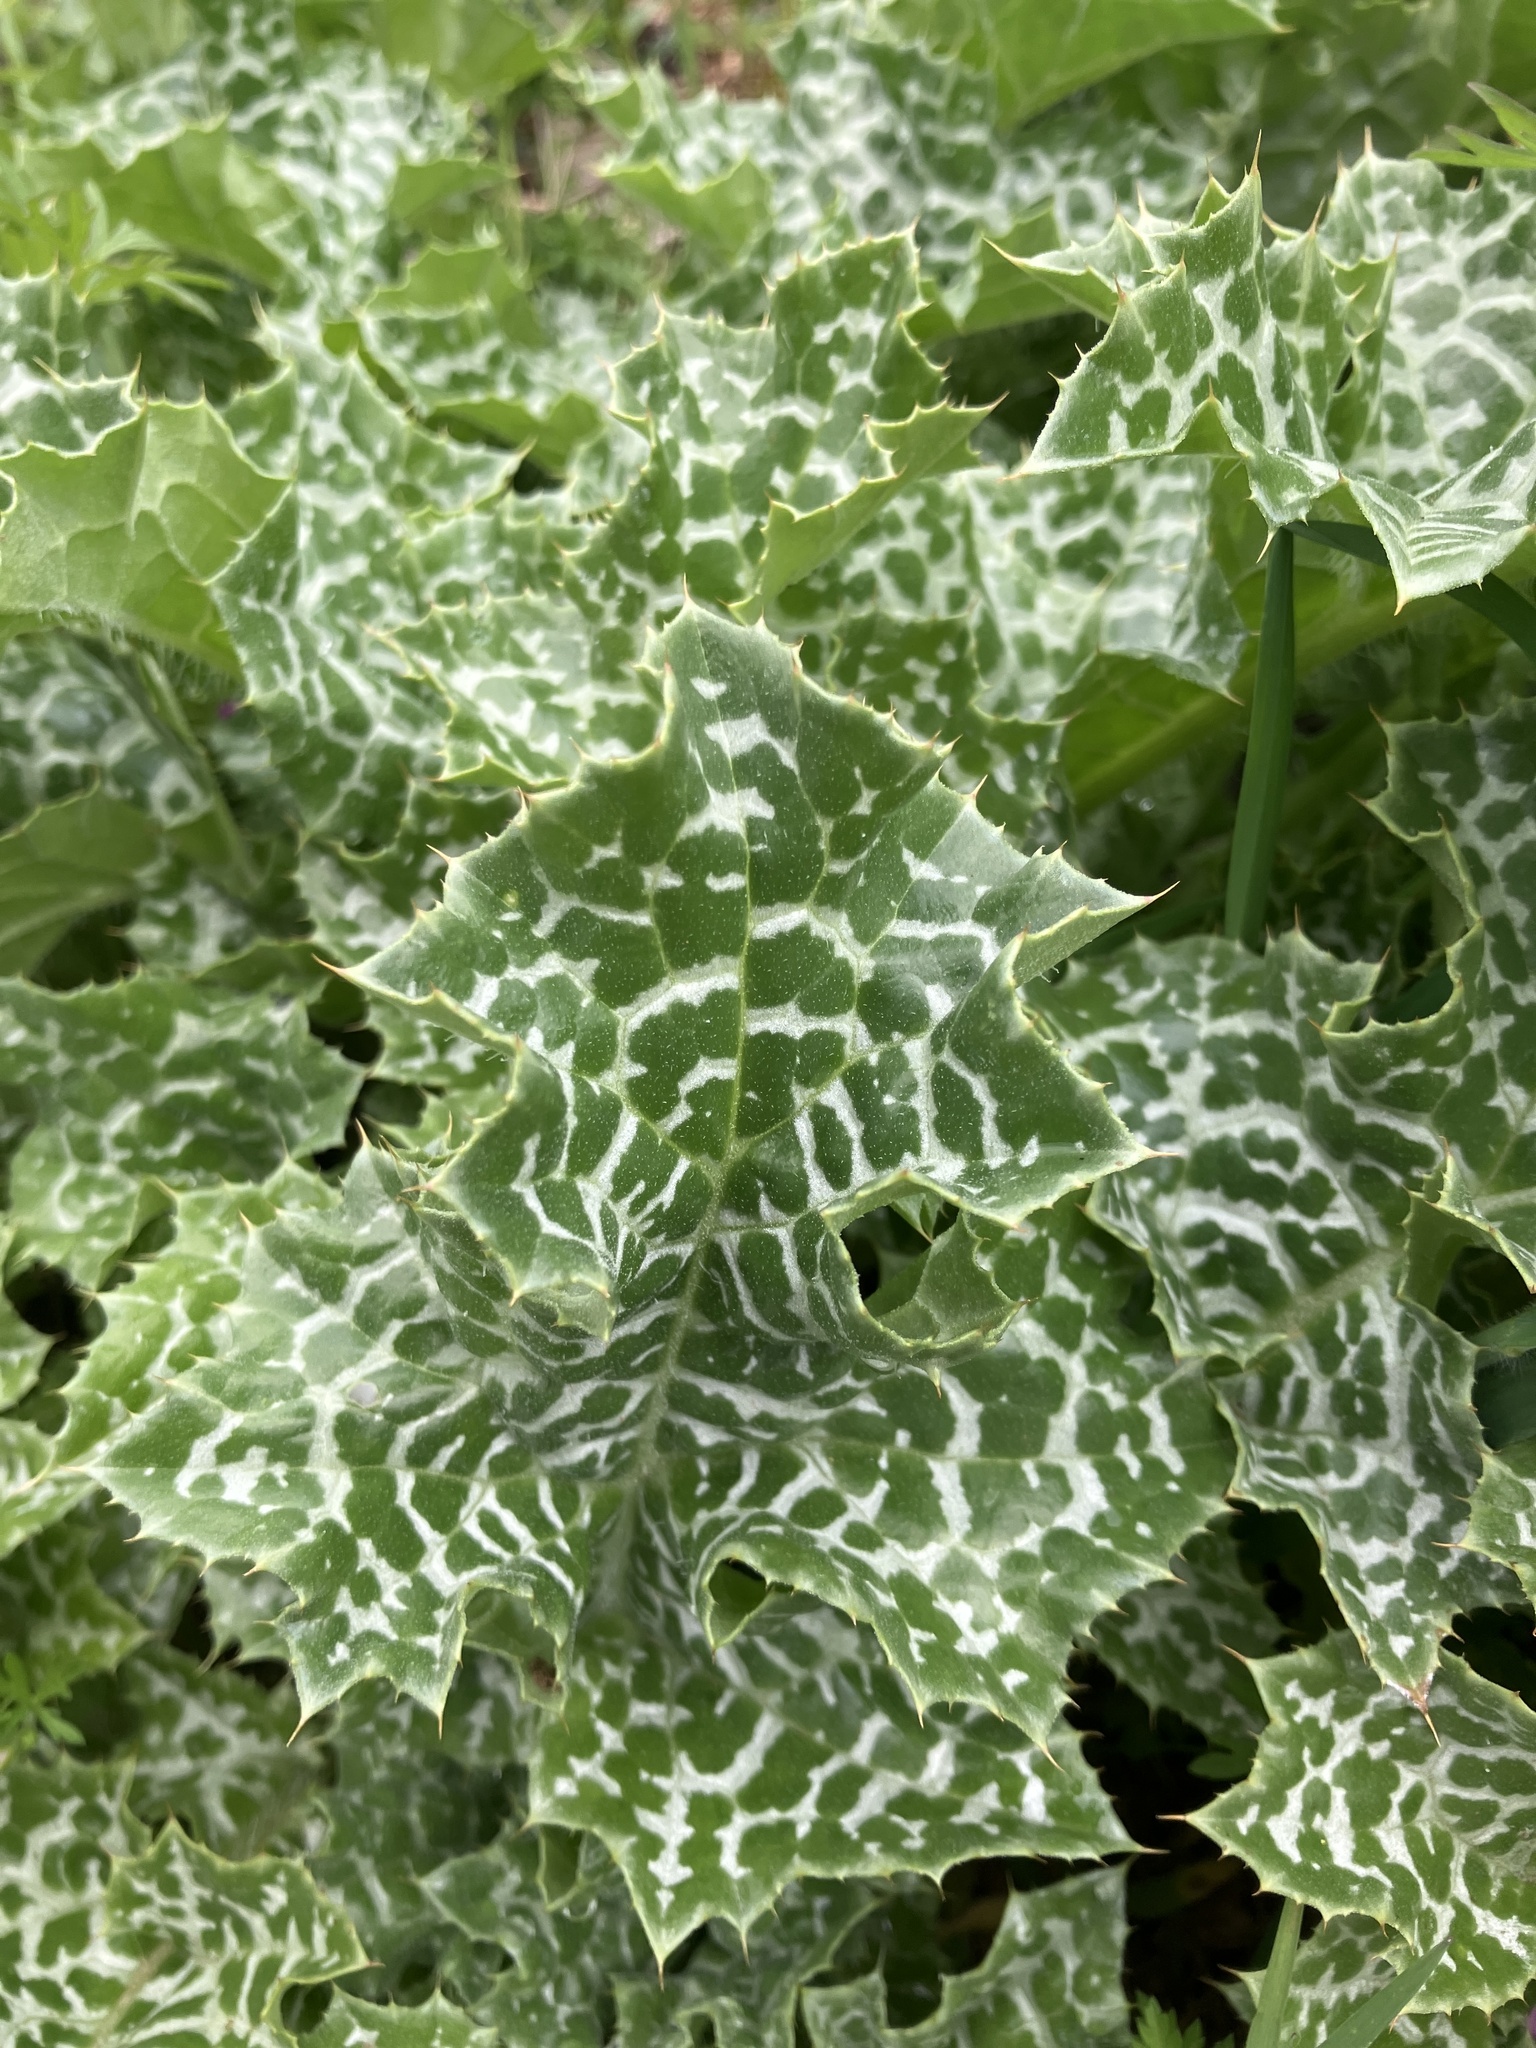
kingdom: Plantae
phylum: Tracheophyta
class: Magnoliopsida
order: Asterales
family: Asteraceae
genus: Silybum
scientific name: Silybum marianum
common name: Milk thistle
